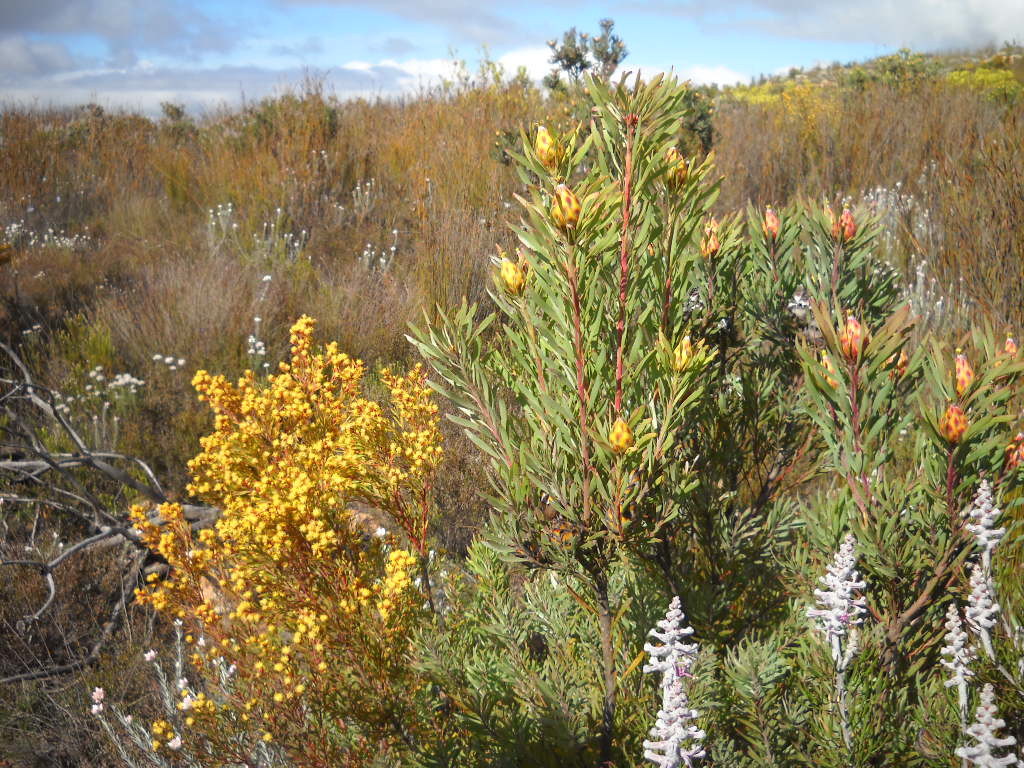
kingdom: Plantae
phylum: Tracheophyta
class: Magnoliopsida
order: Proteales
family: Proteaceae
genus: Leucadendron
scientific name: Leucadendron rubrum
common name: Spinning top
